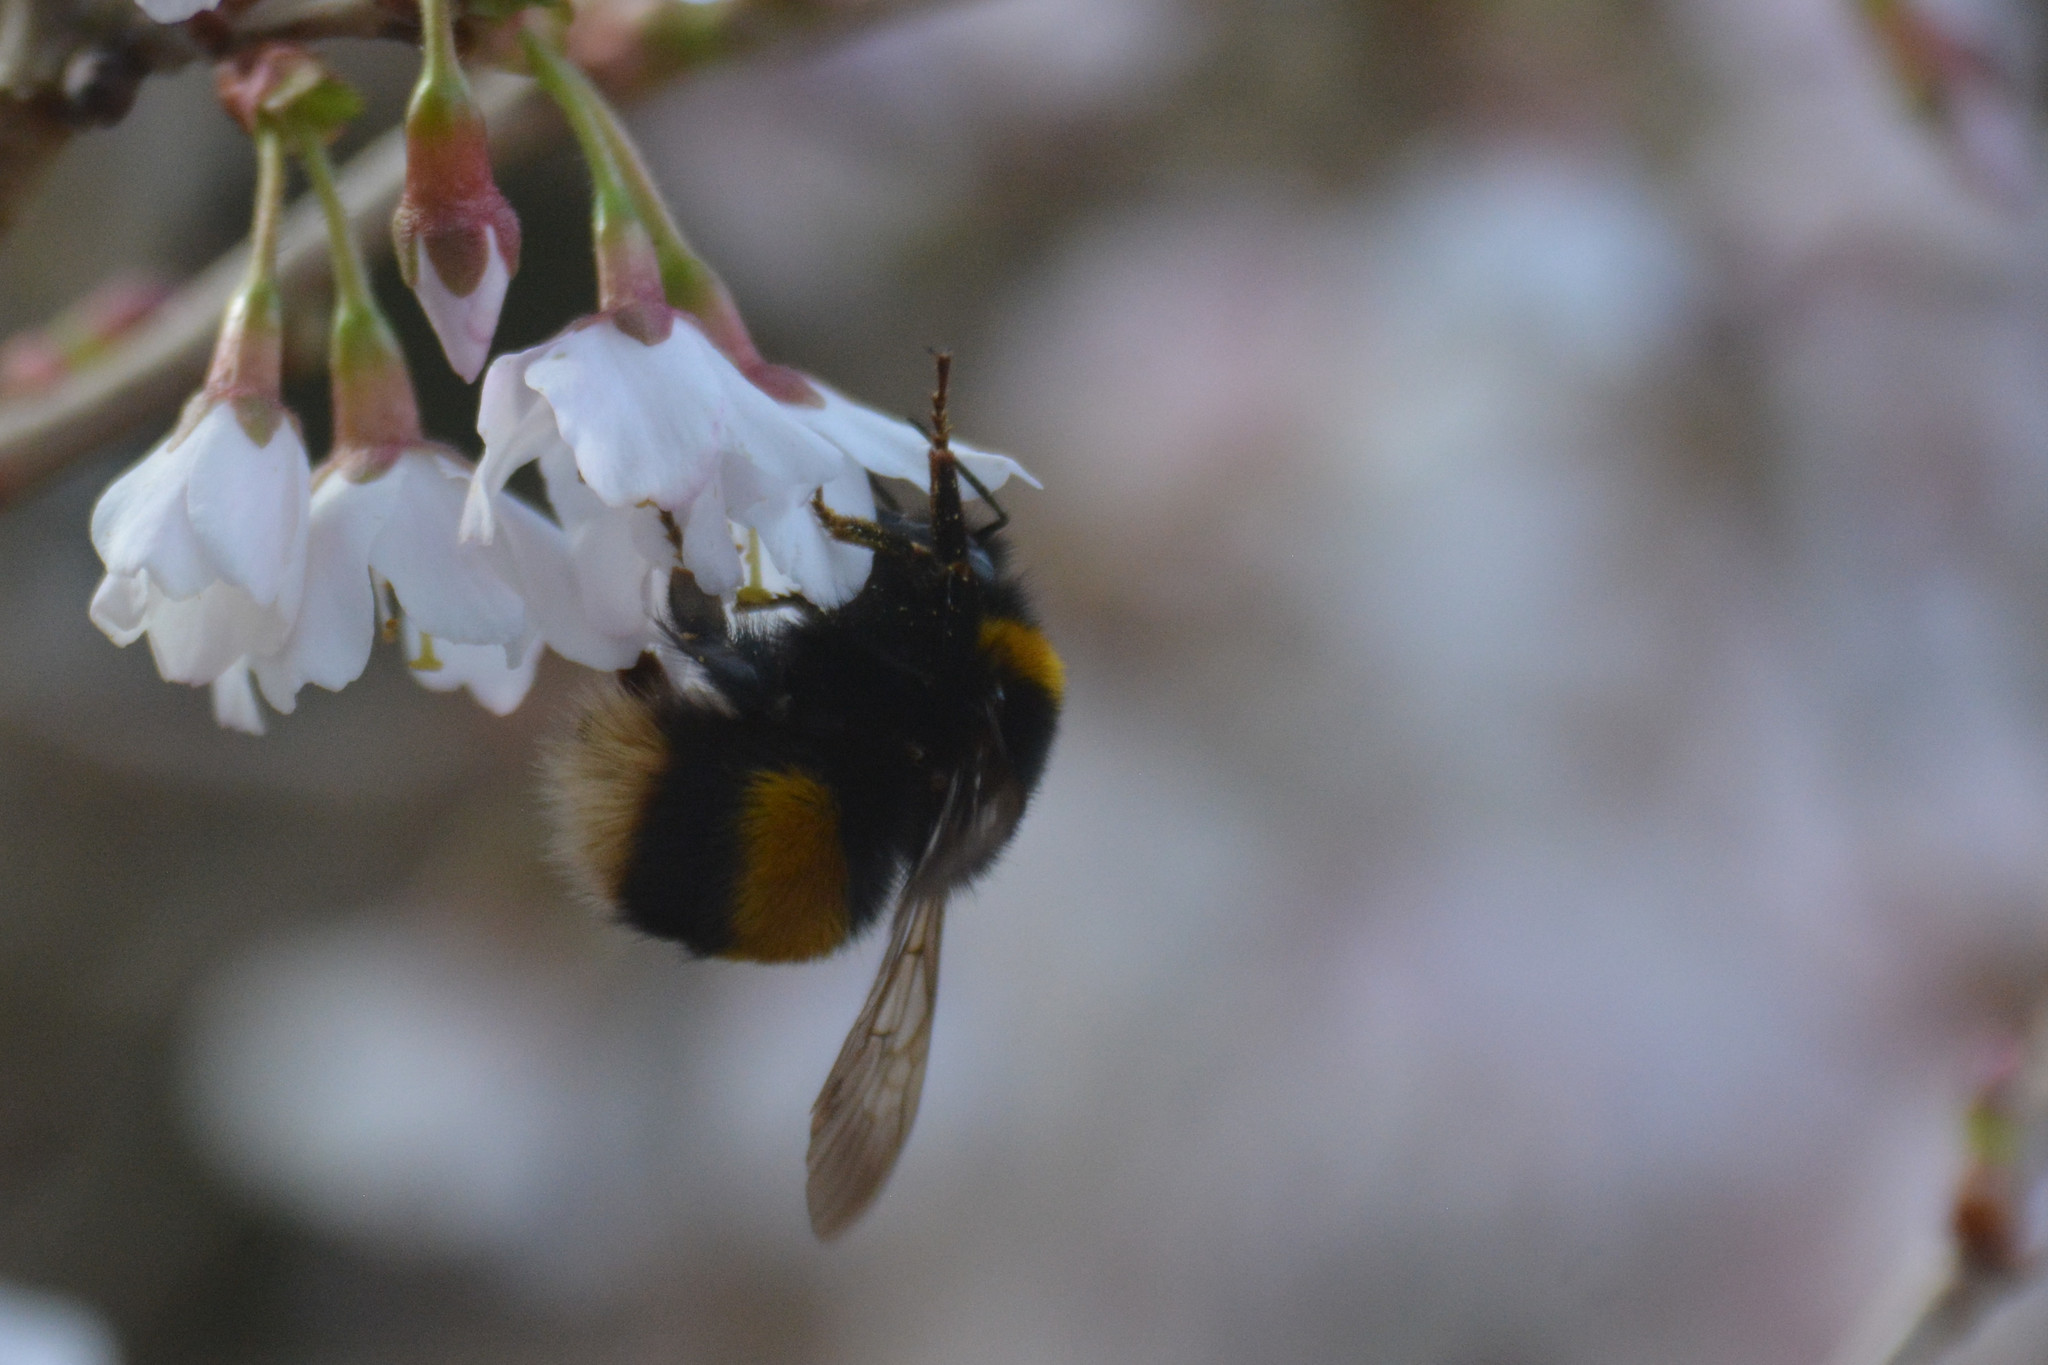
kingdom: Animalia
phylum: Arthropoda
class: Insecta
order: Hymenoptera
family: Apidae
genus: Bombus
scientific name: Bombus terrestris
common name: Buff-tailed bumblebee
